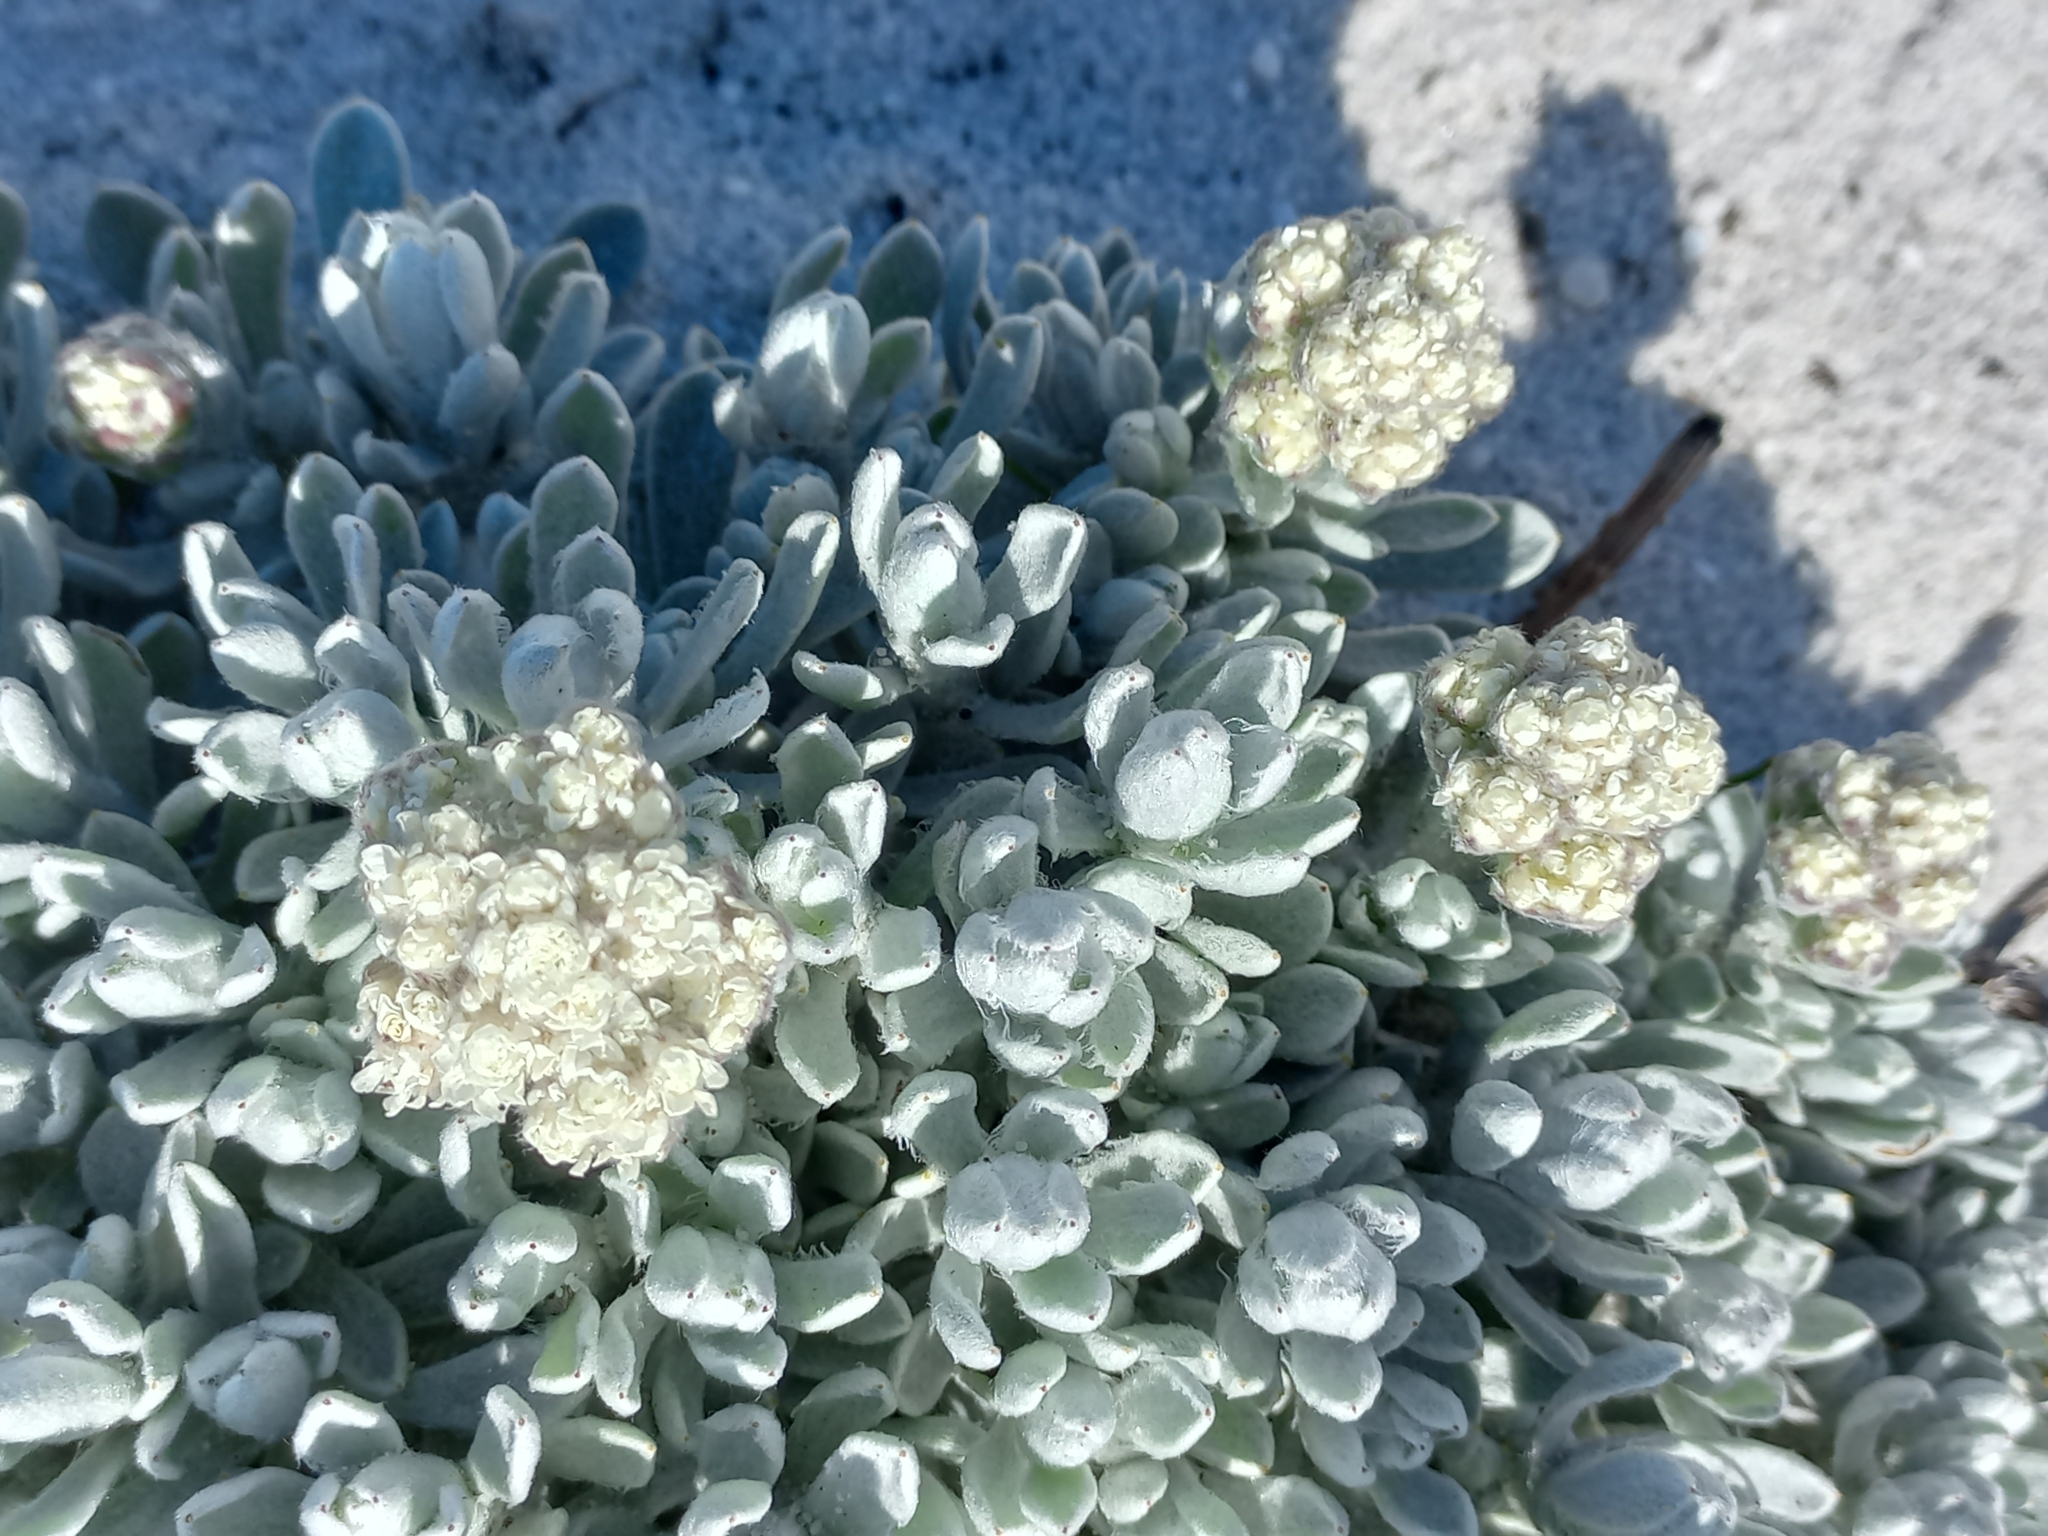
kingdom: Plantae
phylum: Tracheophyta
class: Magnoliopsida
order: Asterales
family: Asteraceae
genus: Petalacte
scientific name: Petalacte coronata
